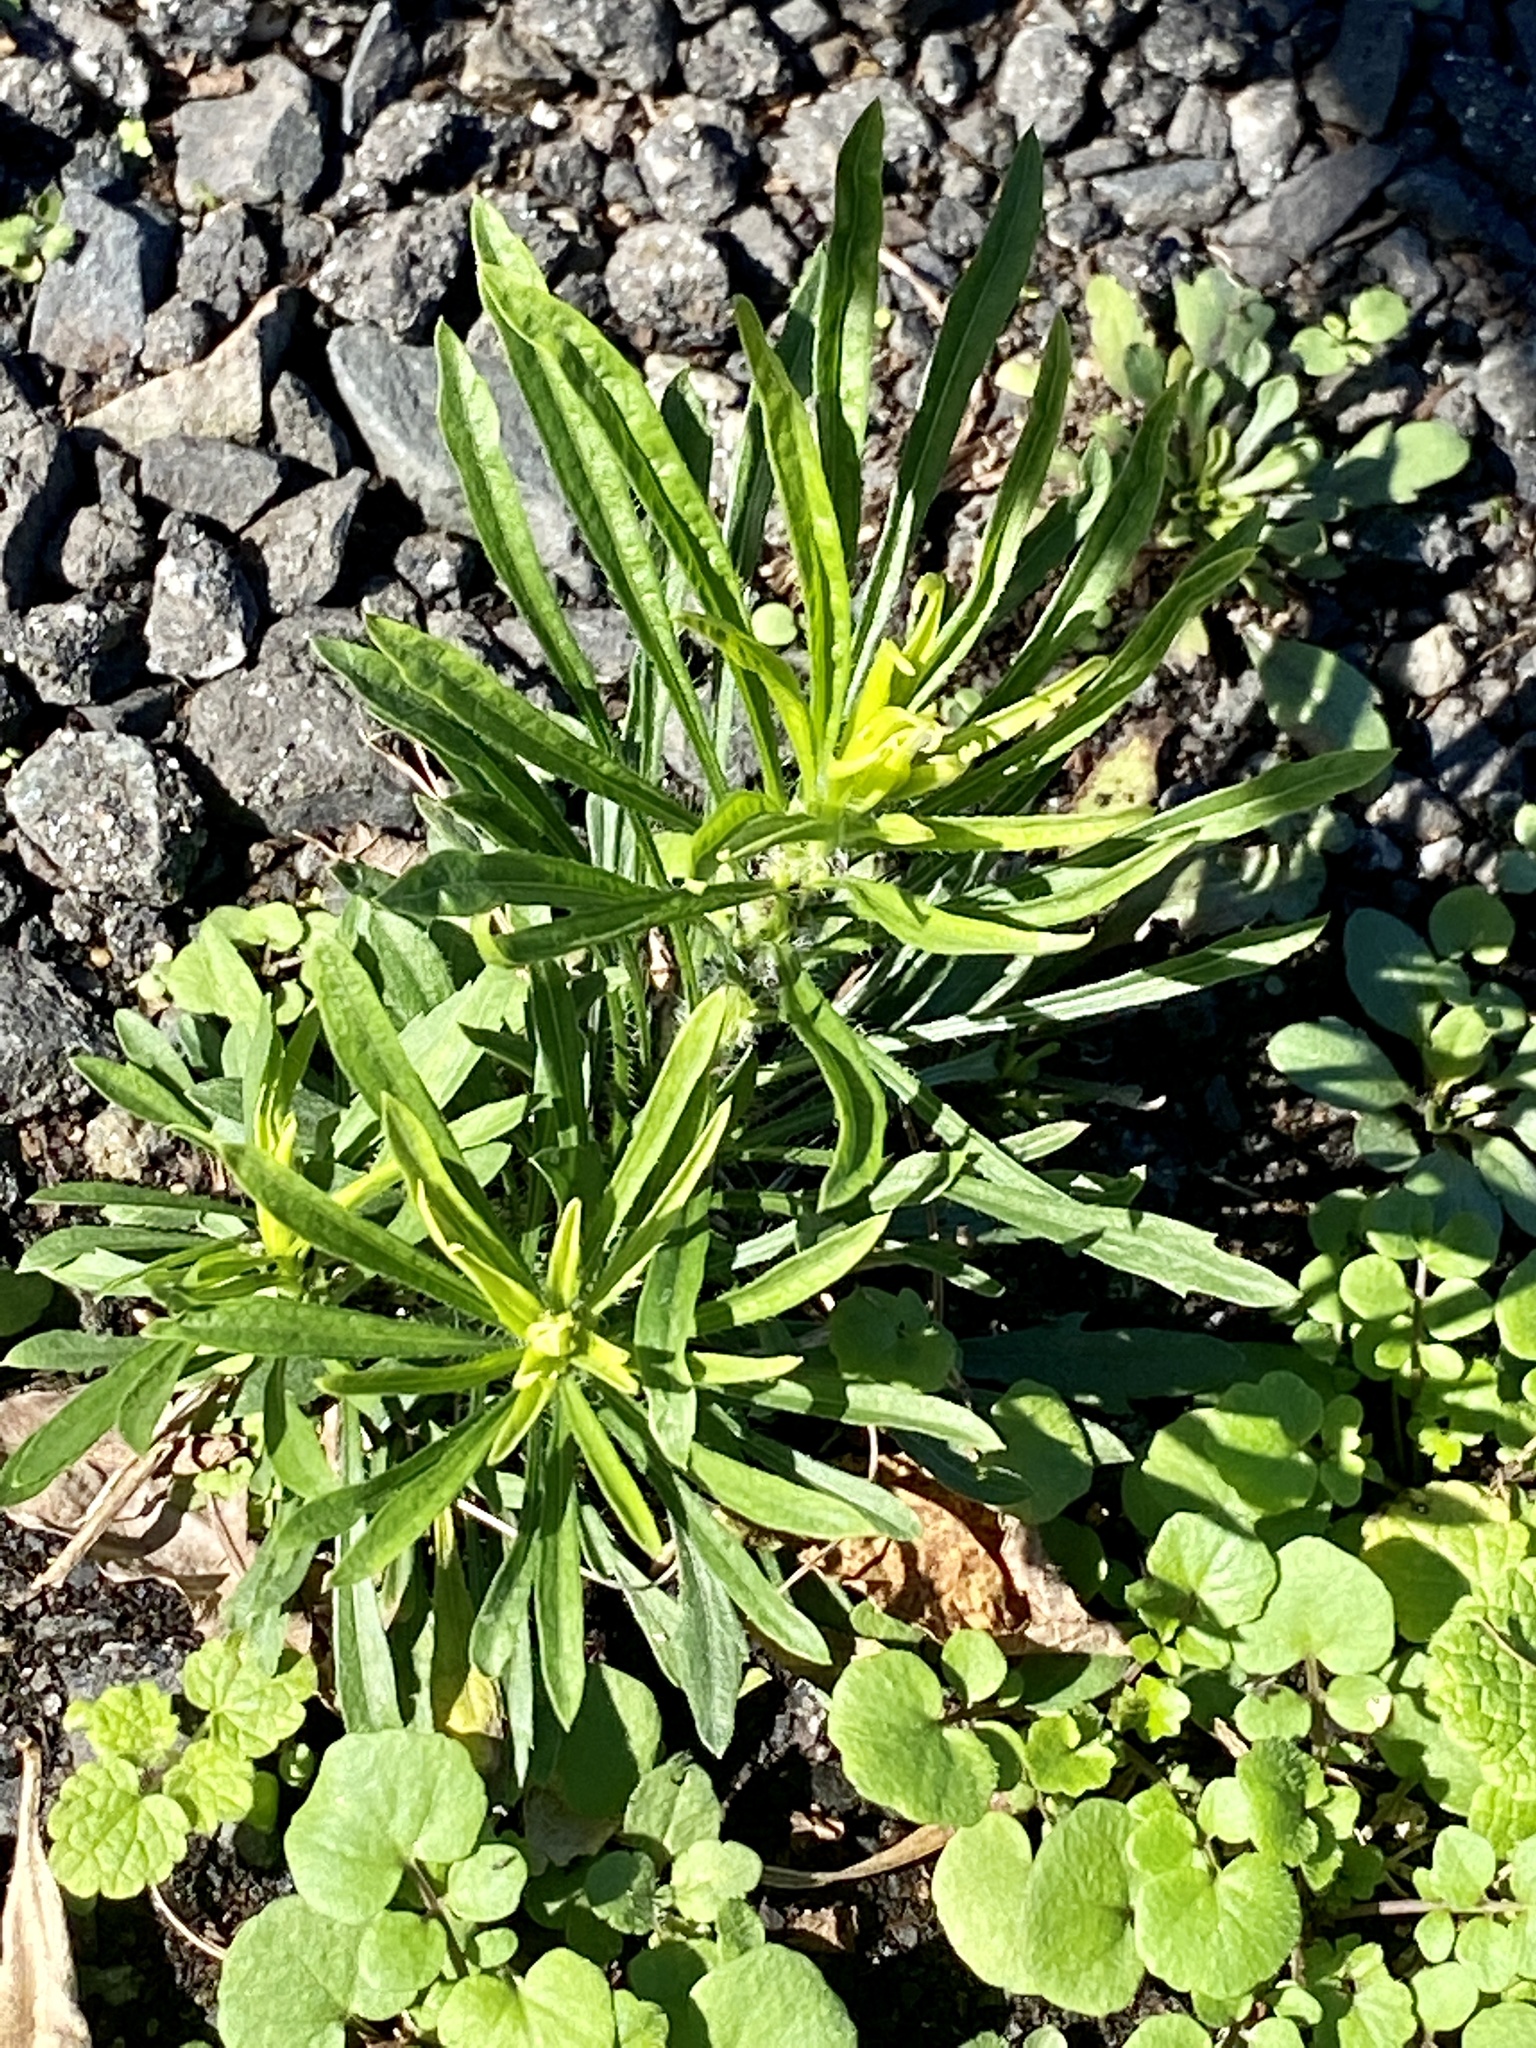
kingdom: Plantae
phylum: Tracheophyta
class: Magnoliopsida
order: Asterales
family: Asteraceae
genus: Erigeron
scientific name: Erigeron canadensis
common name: Canadian fleabane
